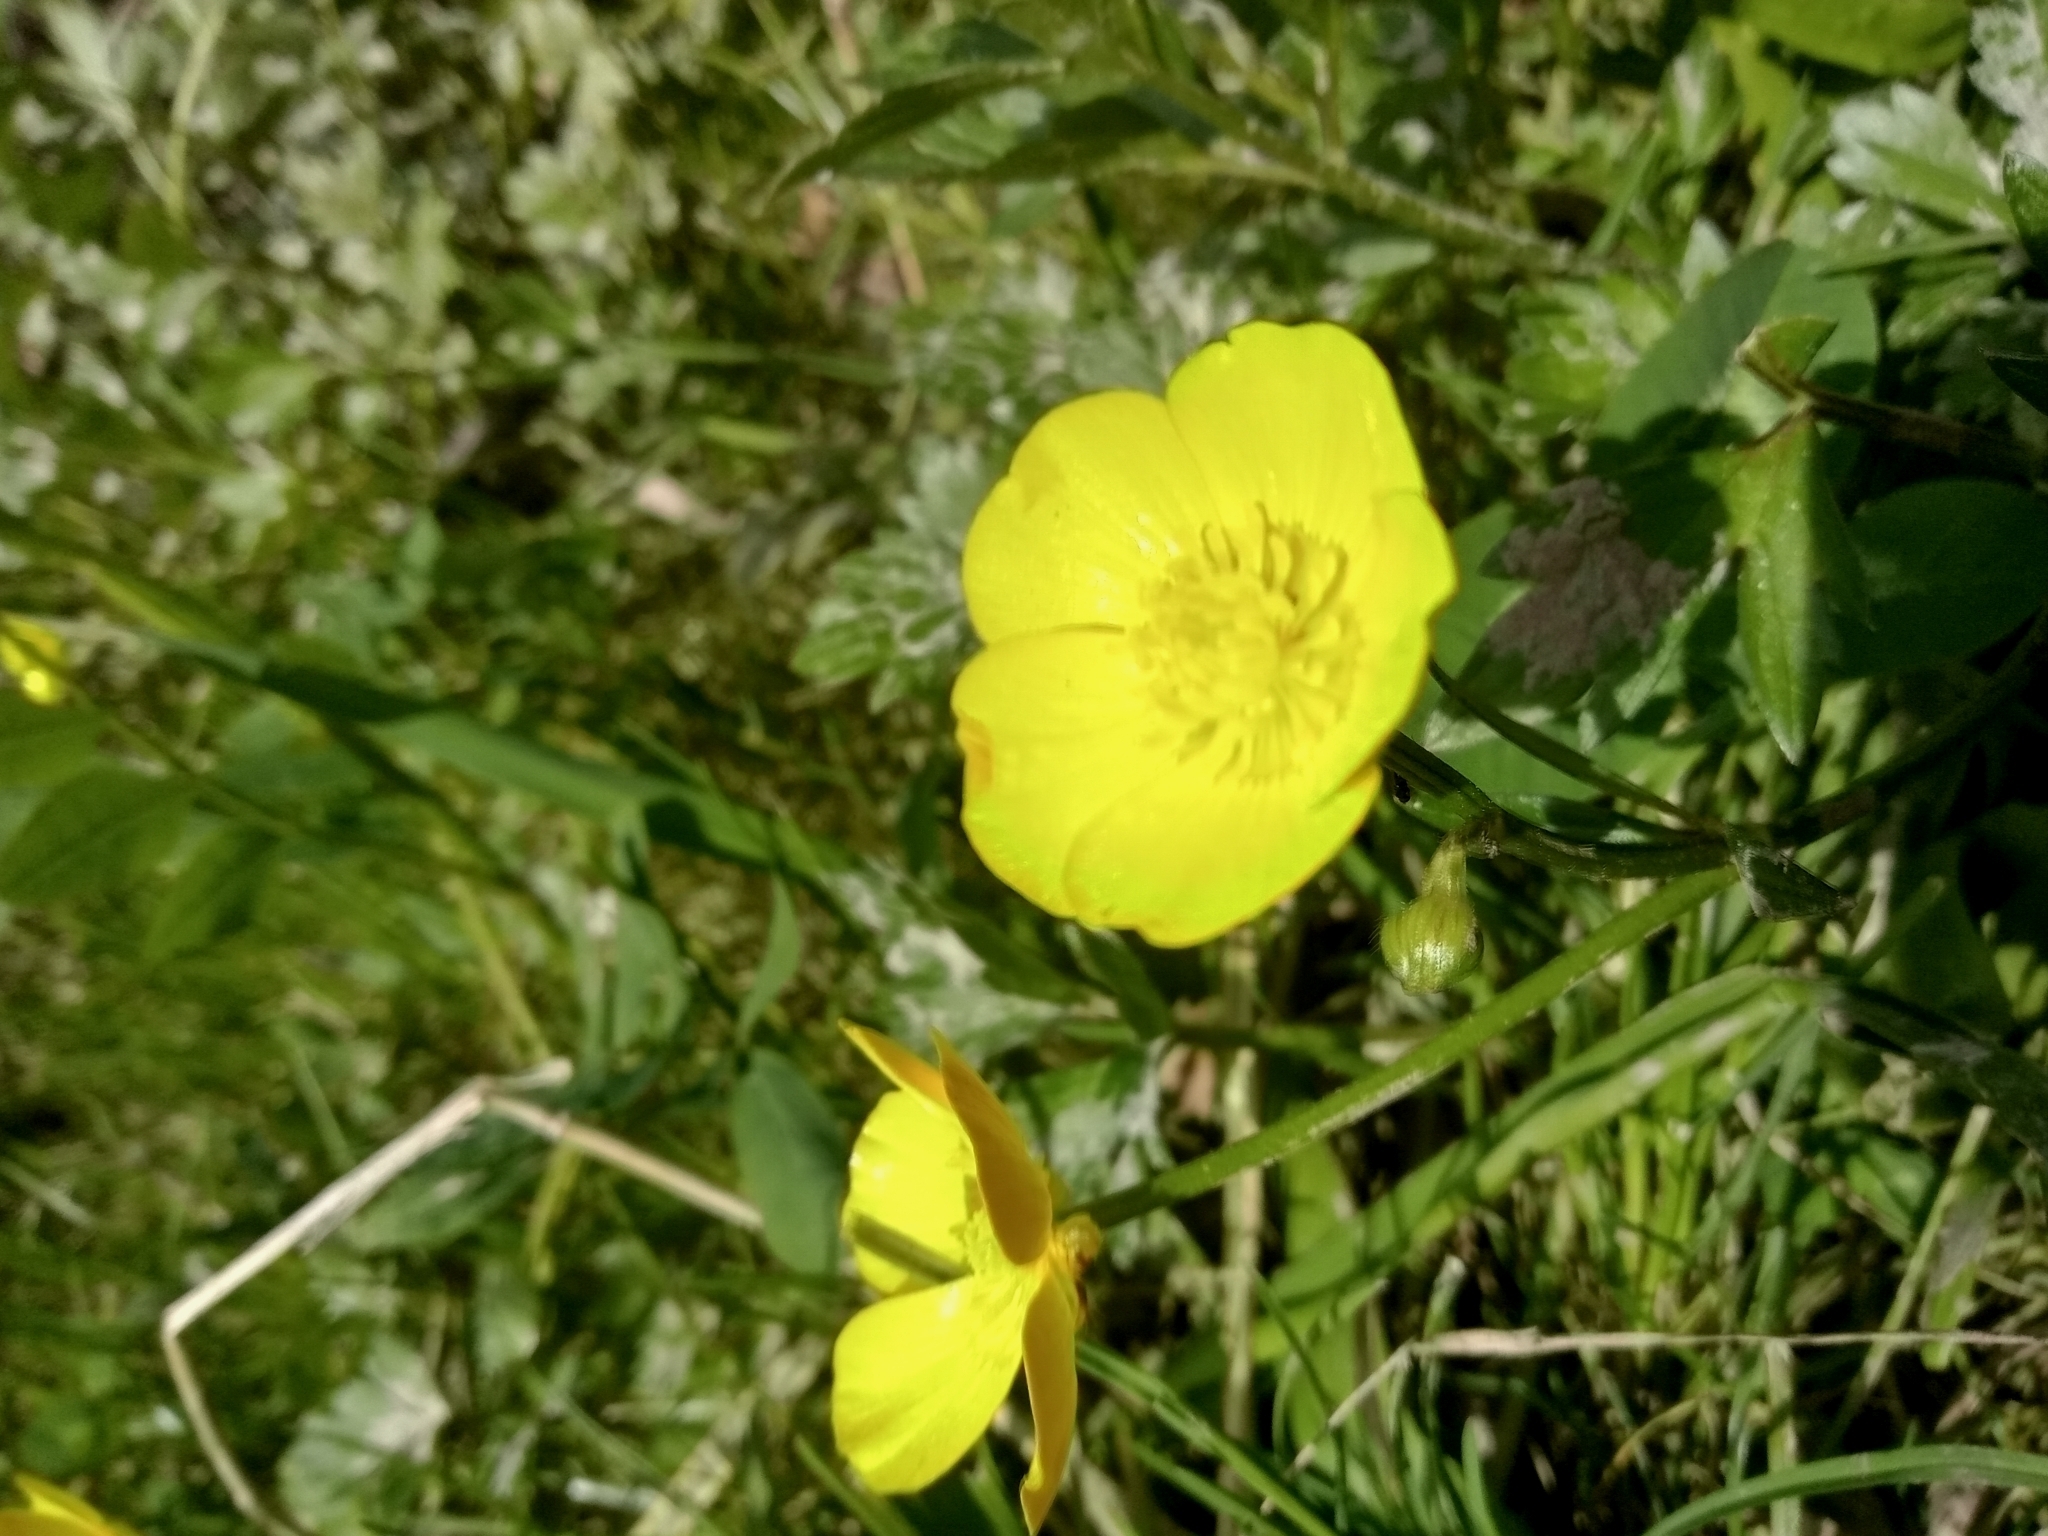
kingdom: Plantae
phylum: Tracheophyta
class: Magnoliopsida
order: Ranunculales
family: Ranunculaceae
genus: Ranunculus
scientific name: Ranunculus repens
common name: Creeping buttercup
